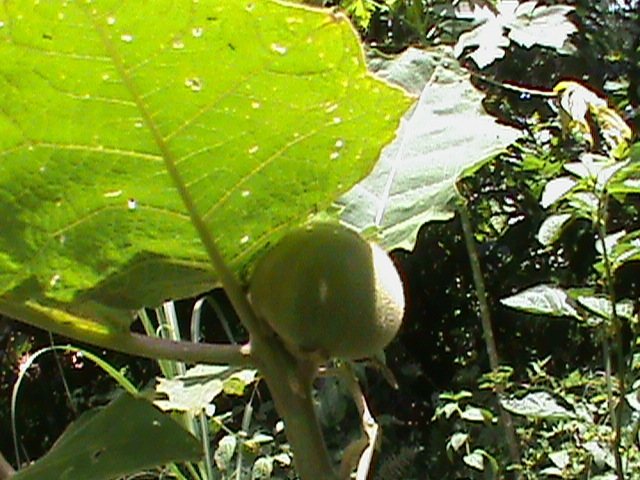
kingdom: Plantae
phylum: Tracheophyta
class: Magnoliopsida
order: Solanales
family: Solanaceae
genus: Solanum
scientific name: Solanum quitoense
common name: Quito-orange
